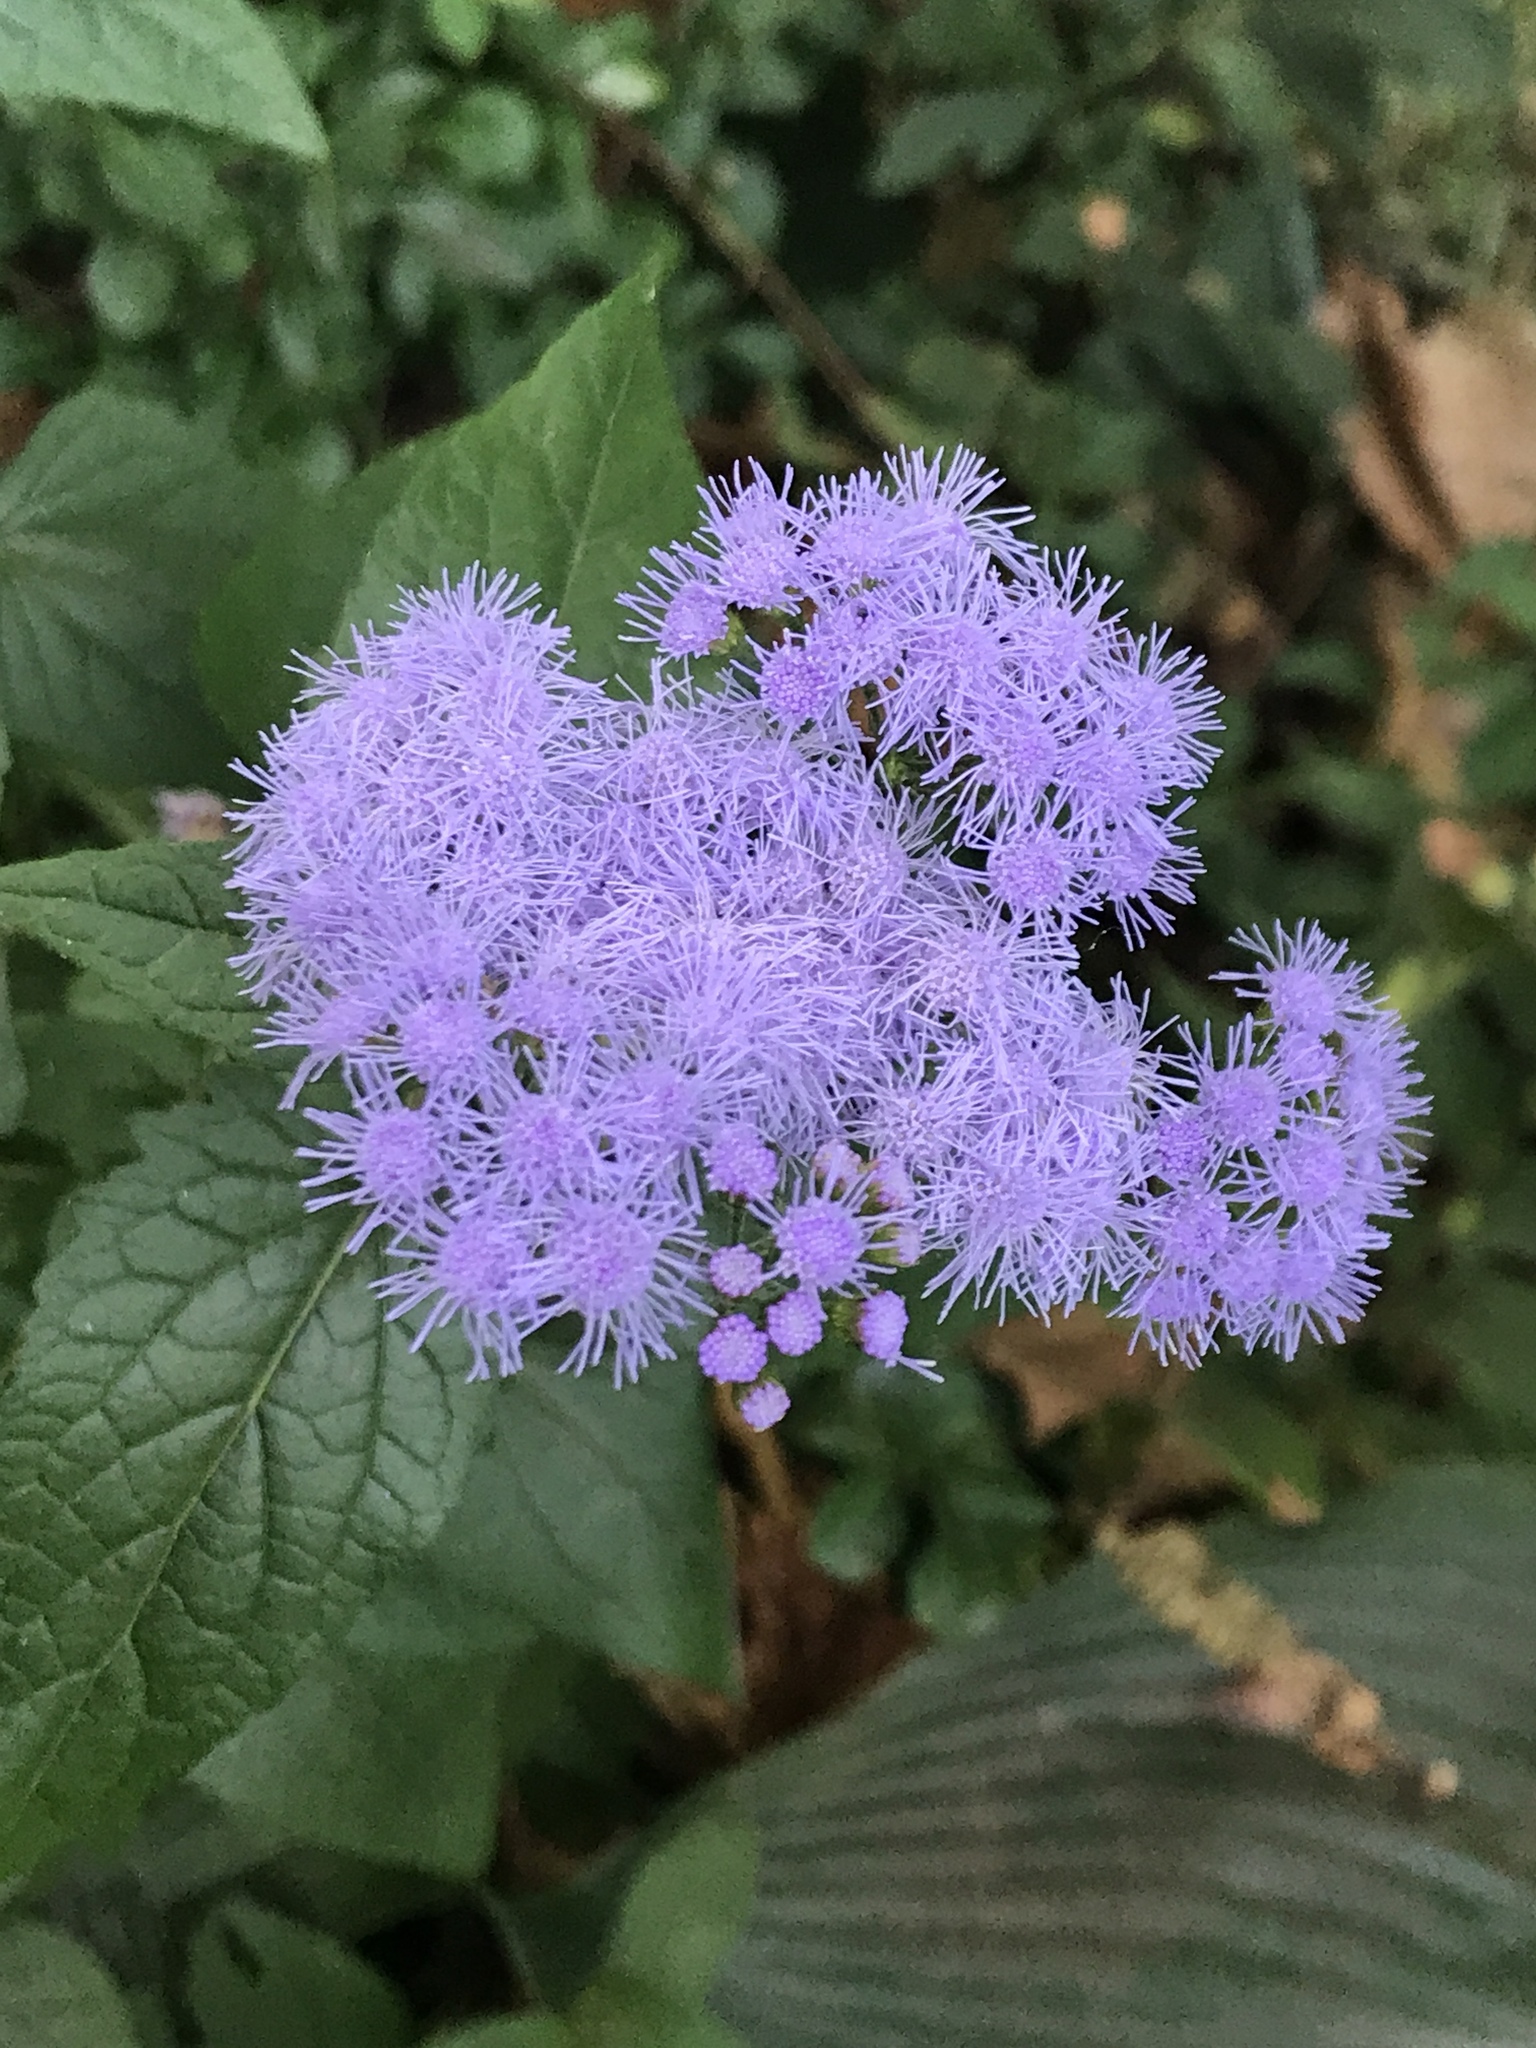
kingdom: Plantae
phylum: Tracheophyta
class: Magnoliopsida
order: Asterales
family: Asteraceae
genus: Conoclinium
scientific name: Conoclinium coelestinum
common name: Blue mistflower
